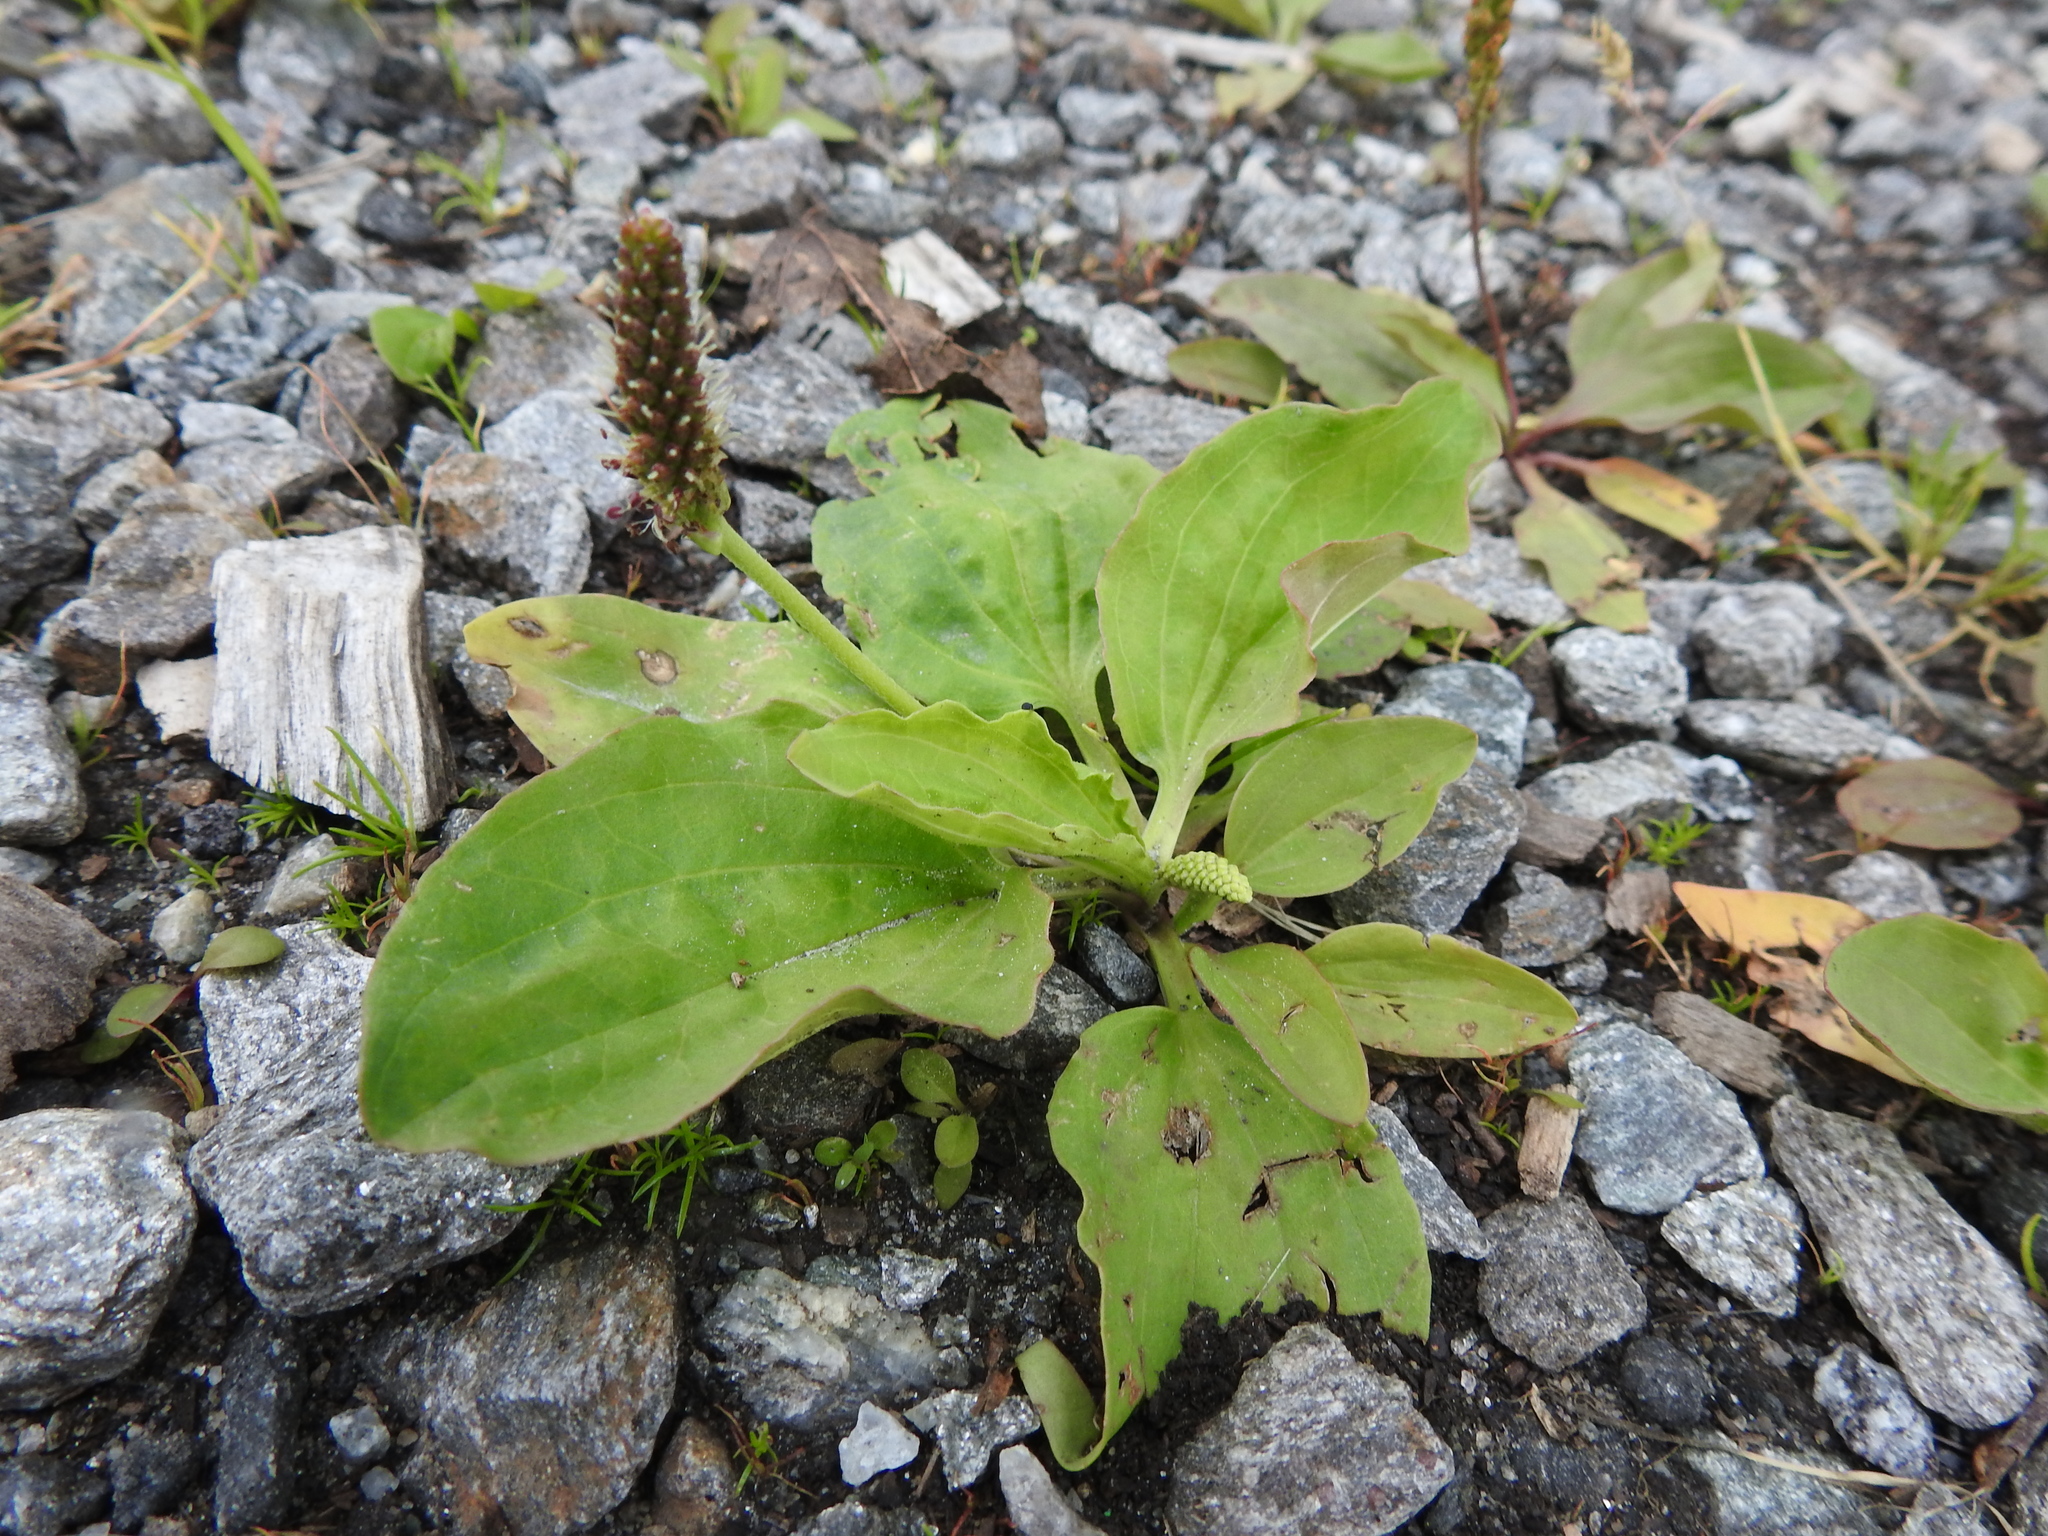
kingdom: Plantae
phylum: Tracheophyta
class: Magnoliopsida
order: Lamiales
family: Plantaginaceae
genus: Plantago
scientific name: Plantago major
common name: Common plantain
